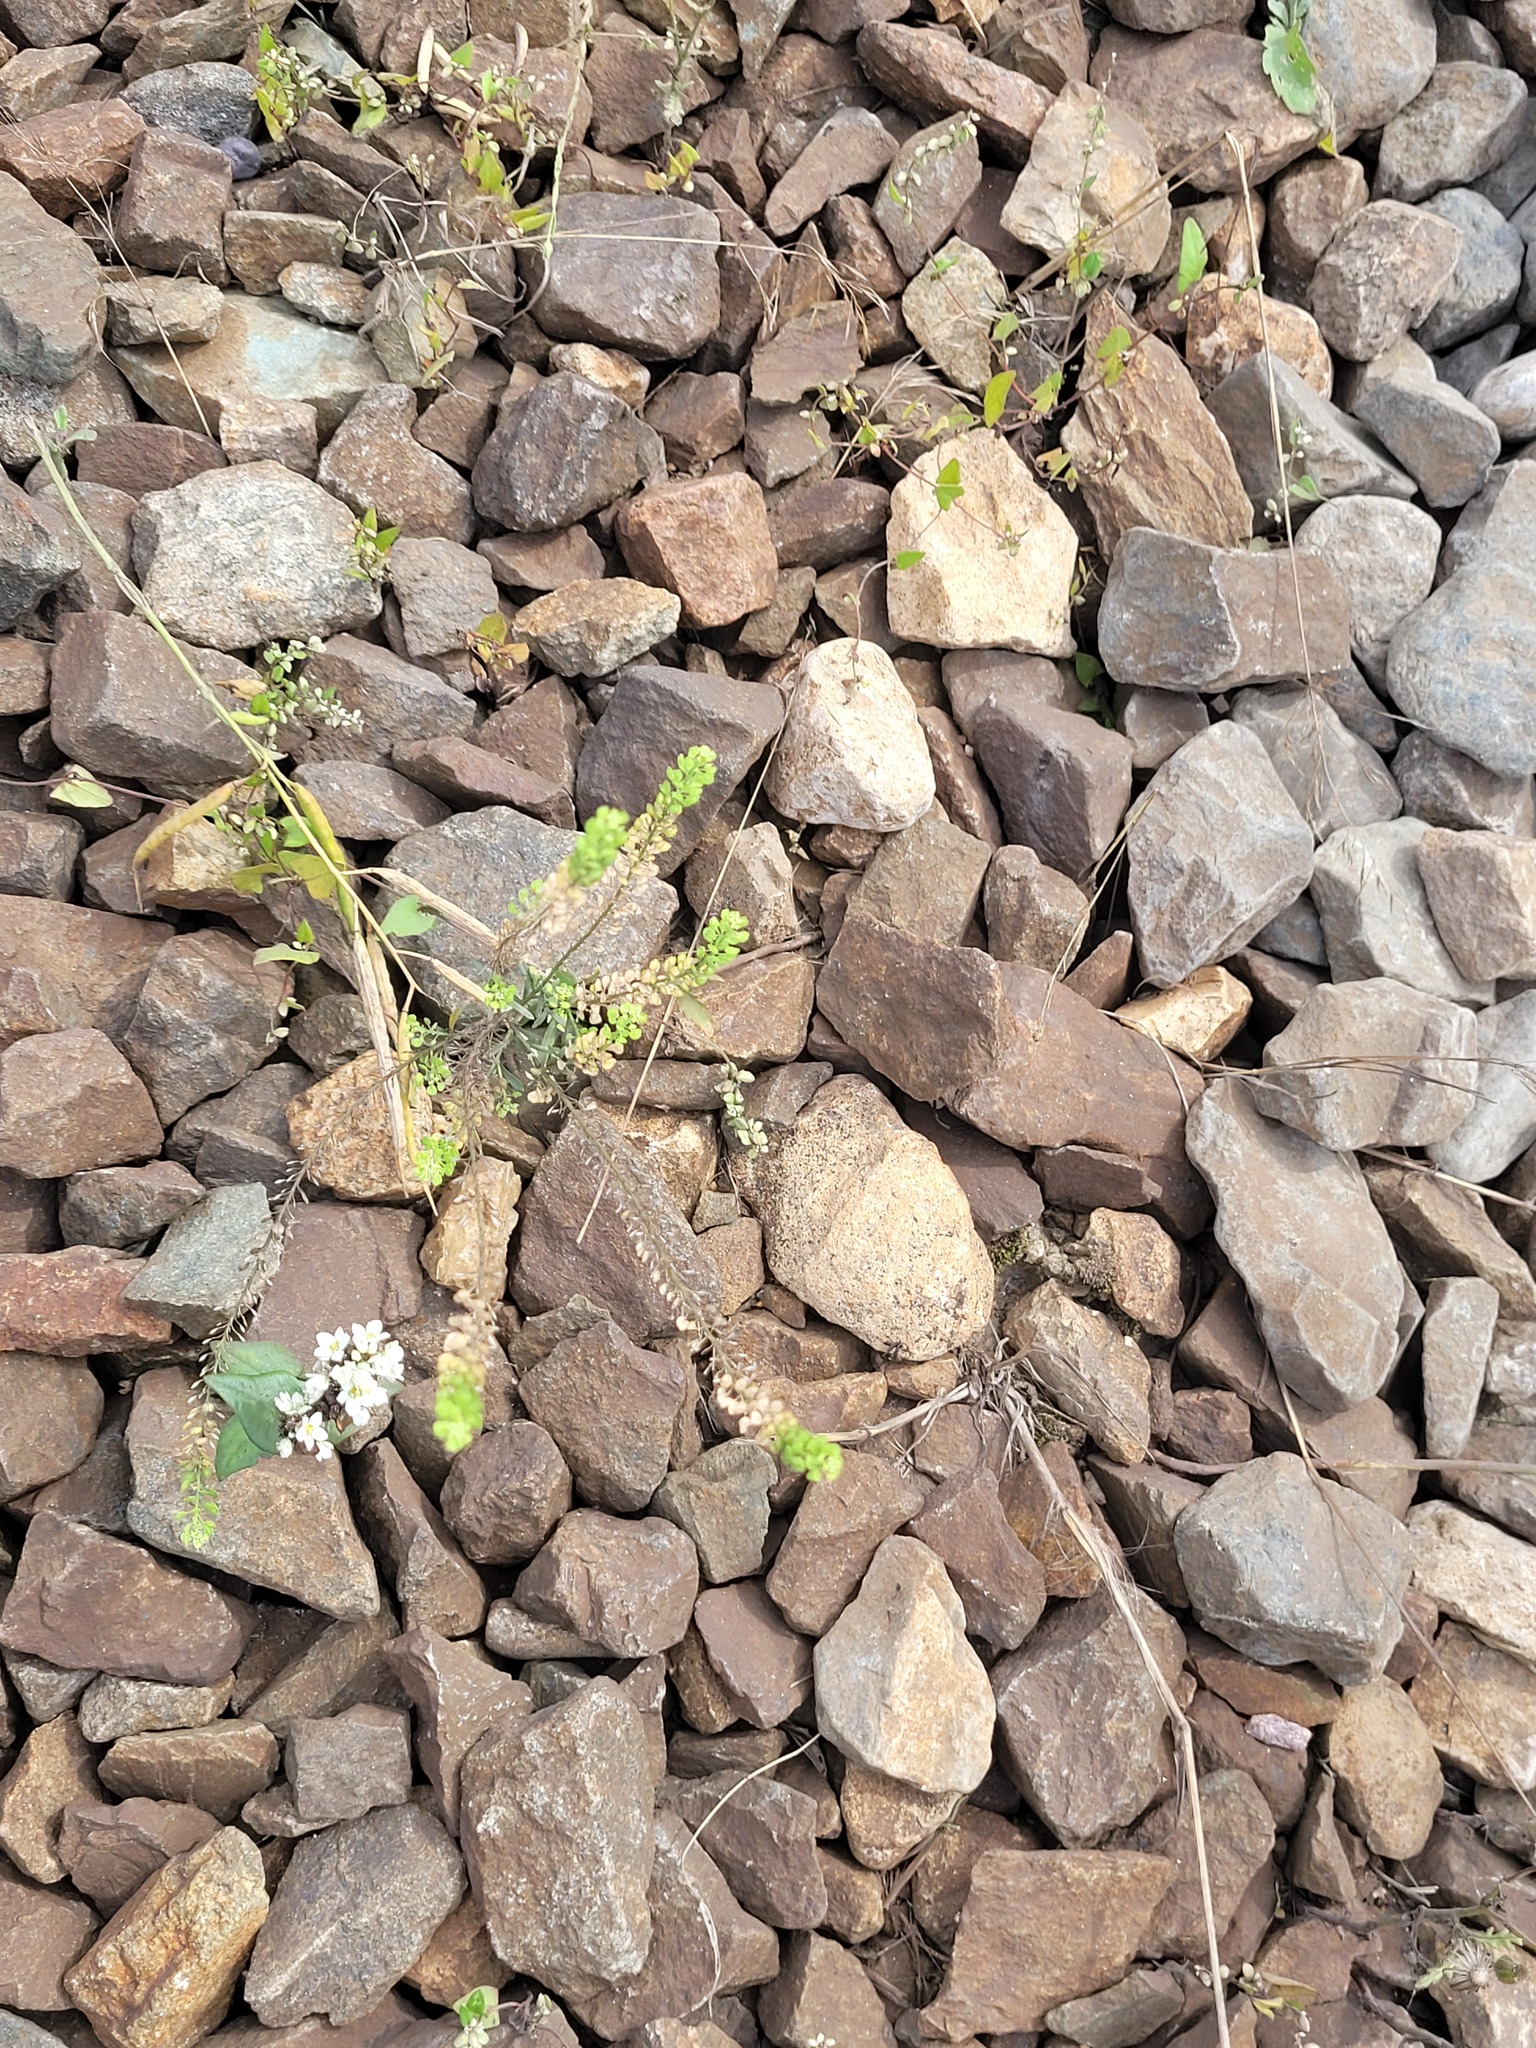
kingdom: Plantae
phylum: Tracheophyta
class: Magnoliopsida
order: Brassicales
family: Brassicaceae
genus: Lepidium
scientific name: Lepidium densiflorum
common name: Miner's pepperwort
